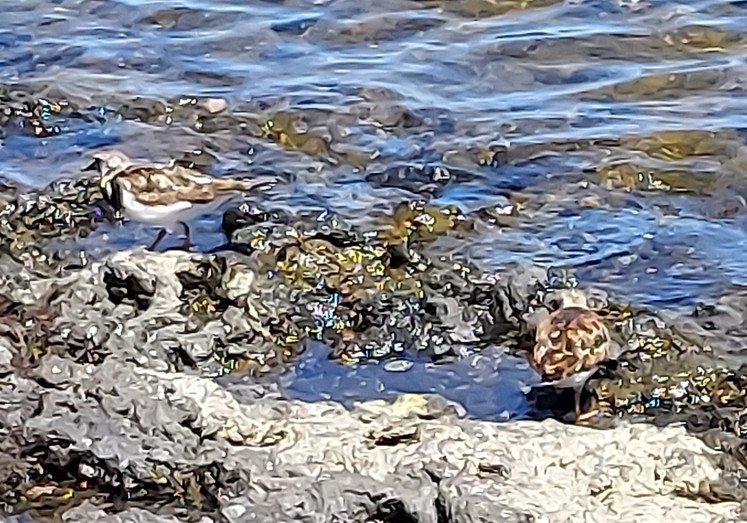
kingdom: Animalia
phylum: Chordata
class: Aves
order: Charadriiformes
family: Scolopacidae
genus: Arenaria
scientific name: Arenaria interpres
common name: Ruddy turnstone
